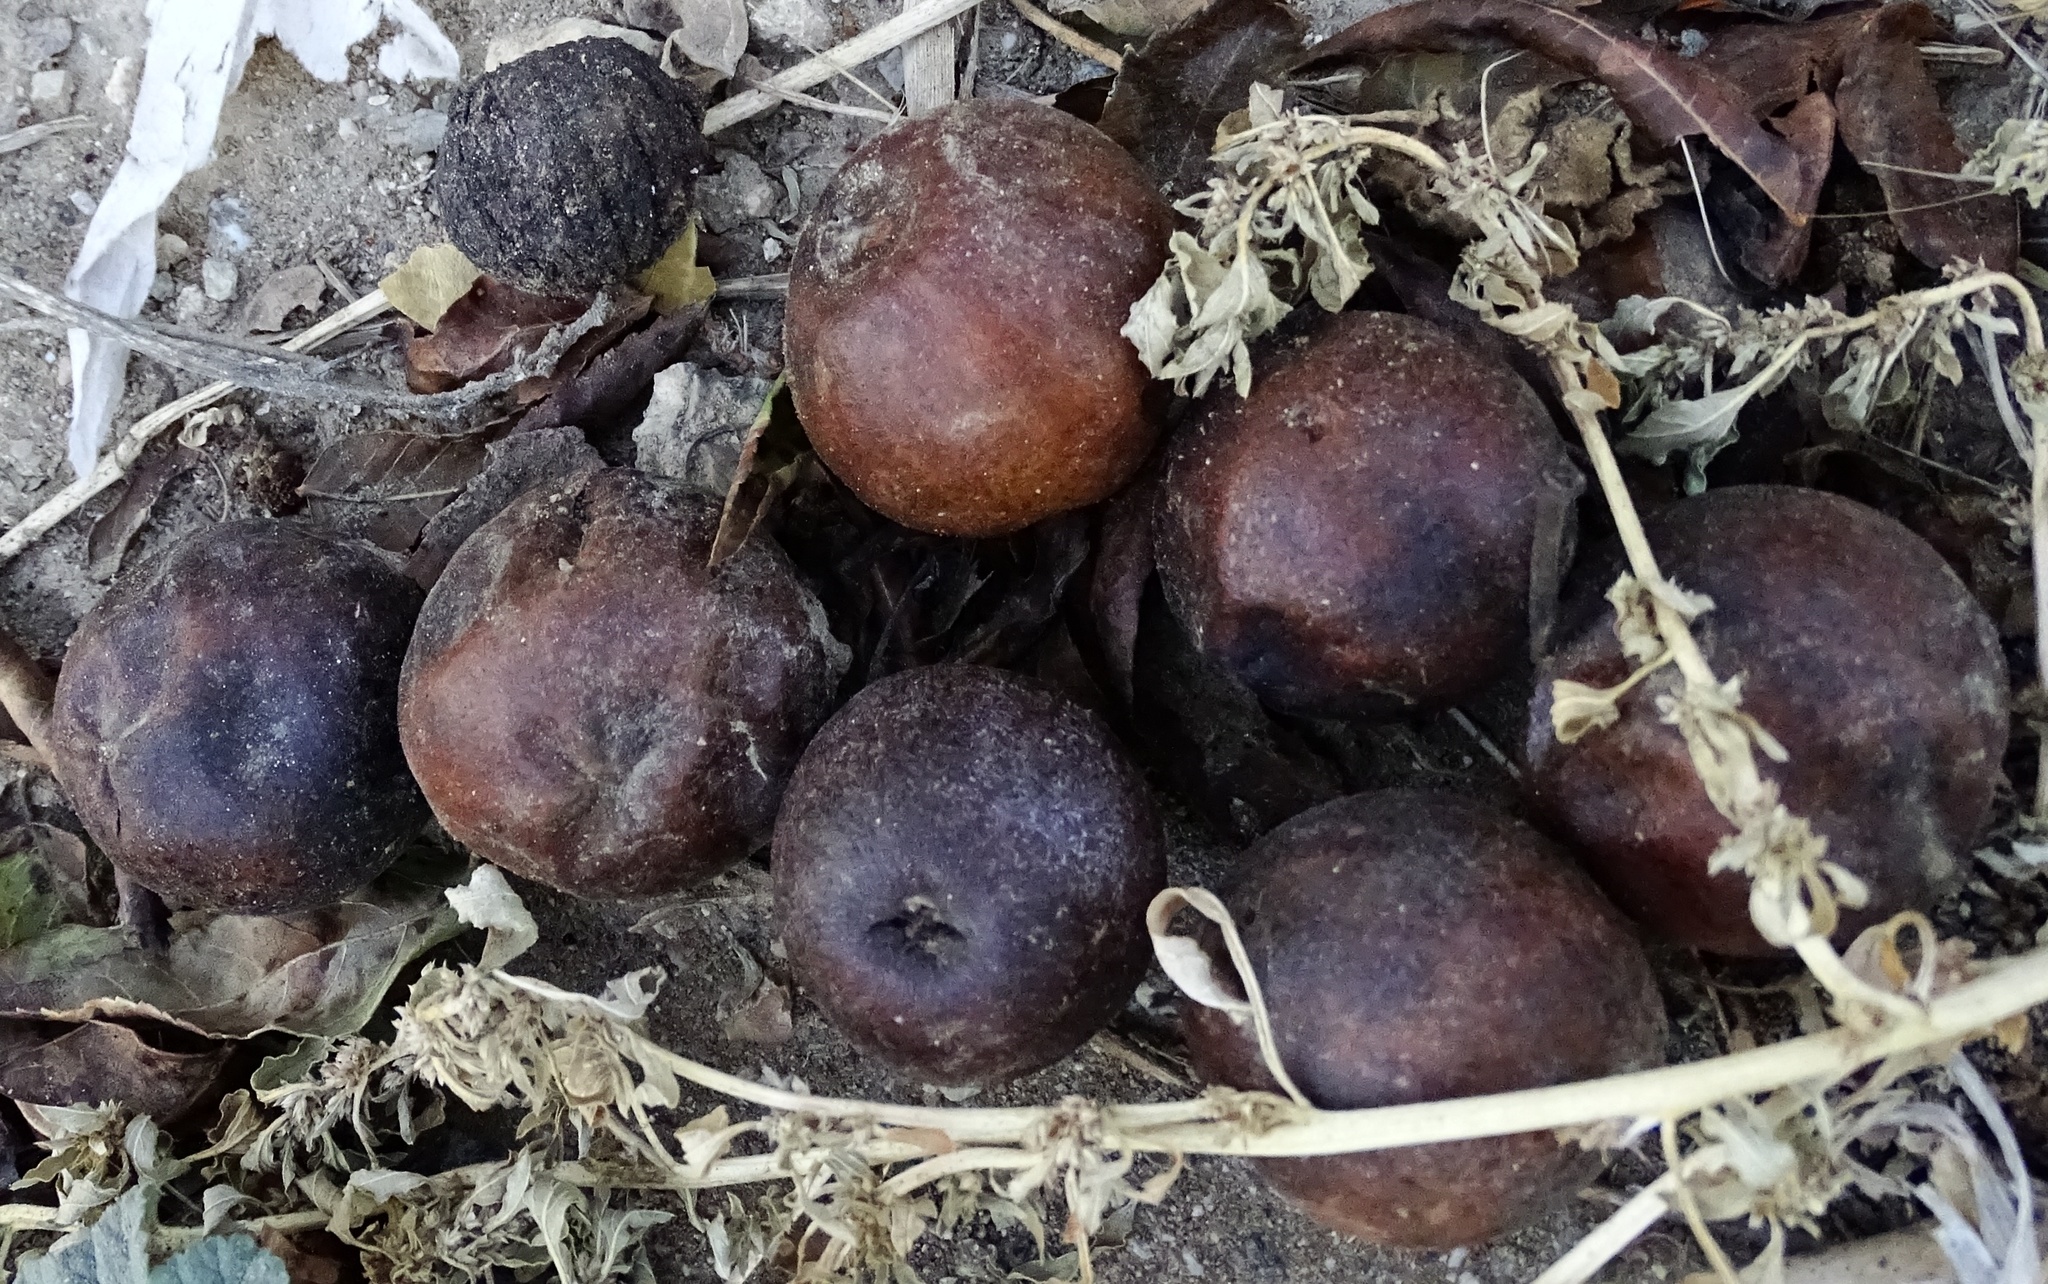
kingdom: Plantae
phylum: Tracheophyta
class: Magnoliopsida
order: Fagales
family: Juglandaceae
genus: Juglans
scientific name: Juglans californica
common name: Southern california black walnut
